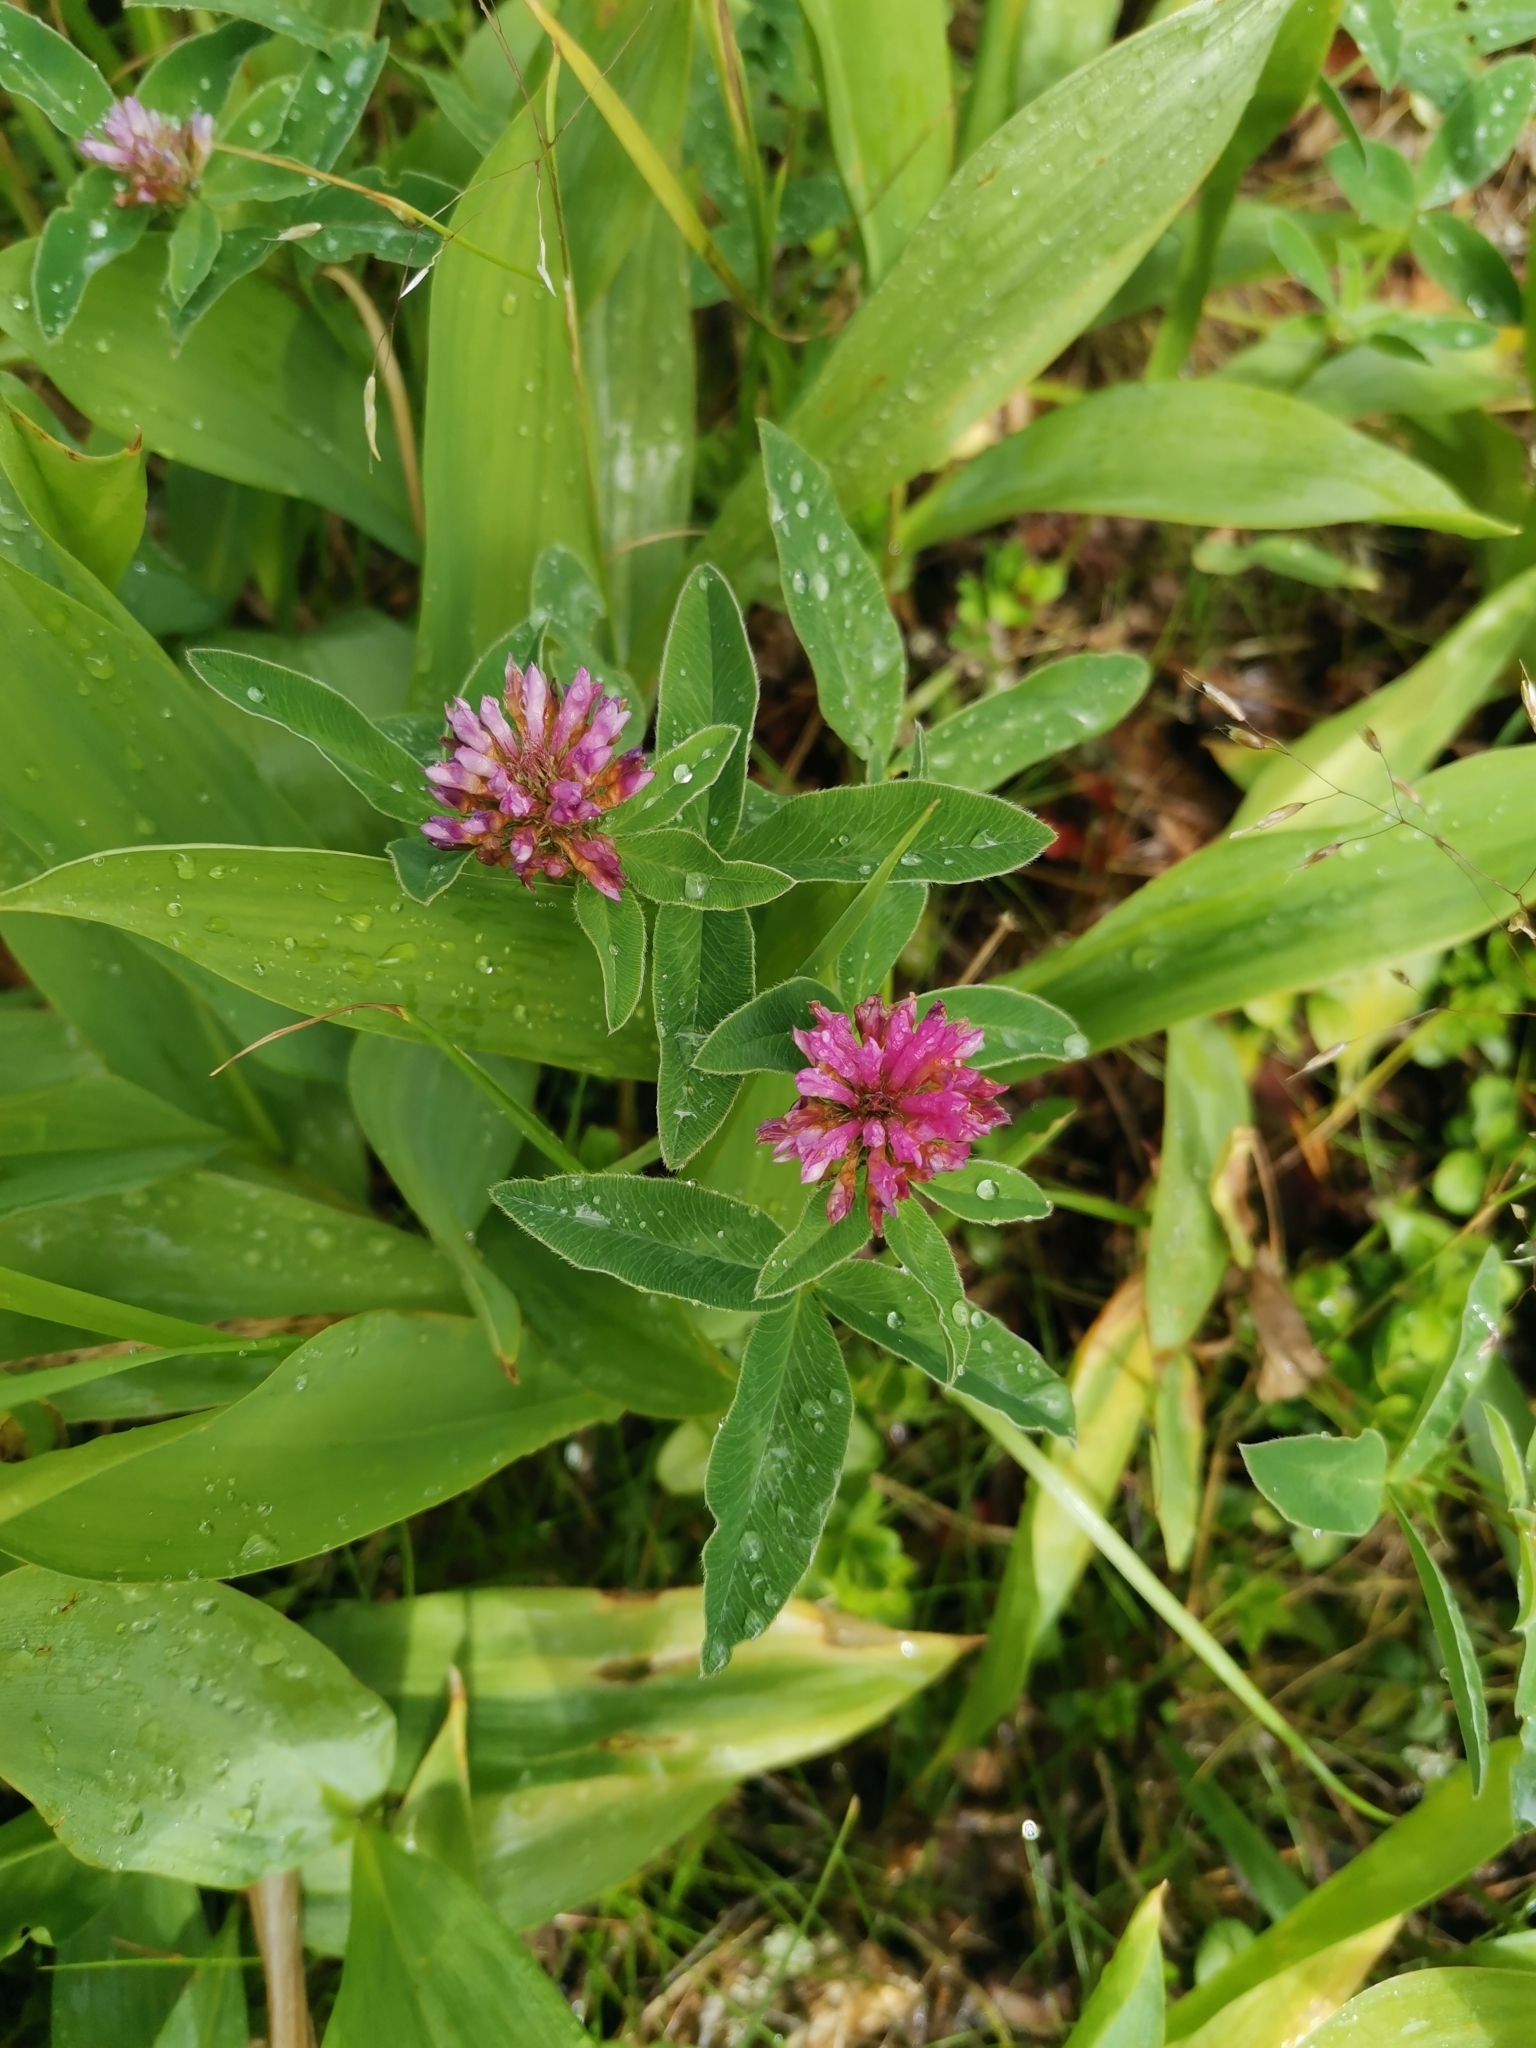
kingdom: Plantae
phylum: Tracheophyta
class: Magnoliopsida
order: Fabales
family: Fabaceae
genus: Trifolium
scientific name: Trifolium medium
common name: Zigzag clover
